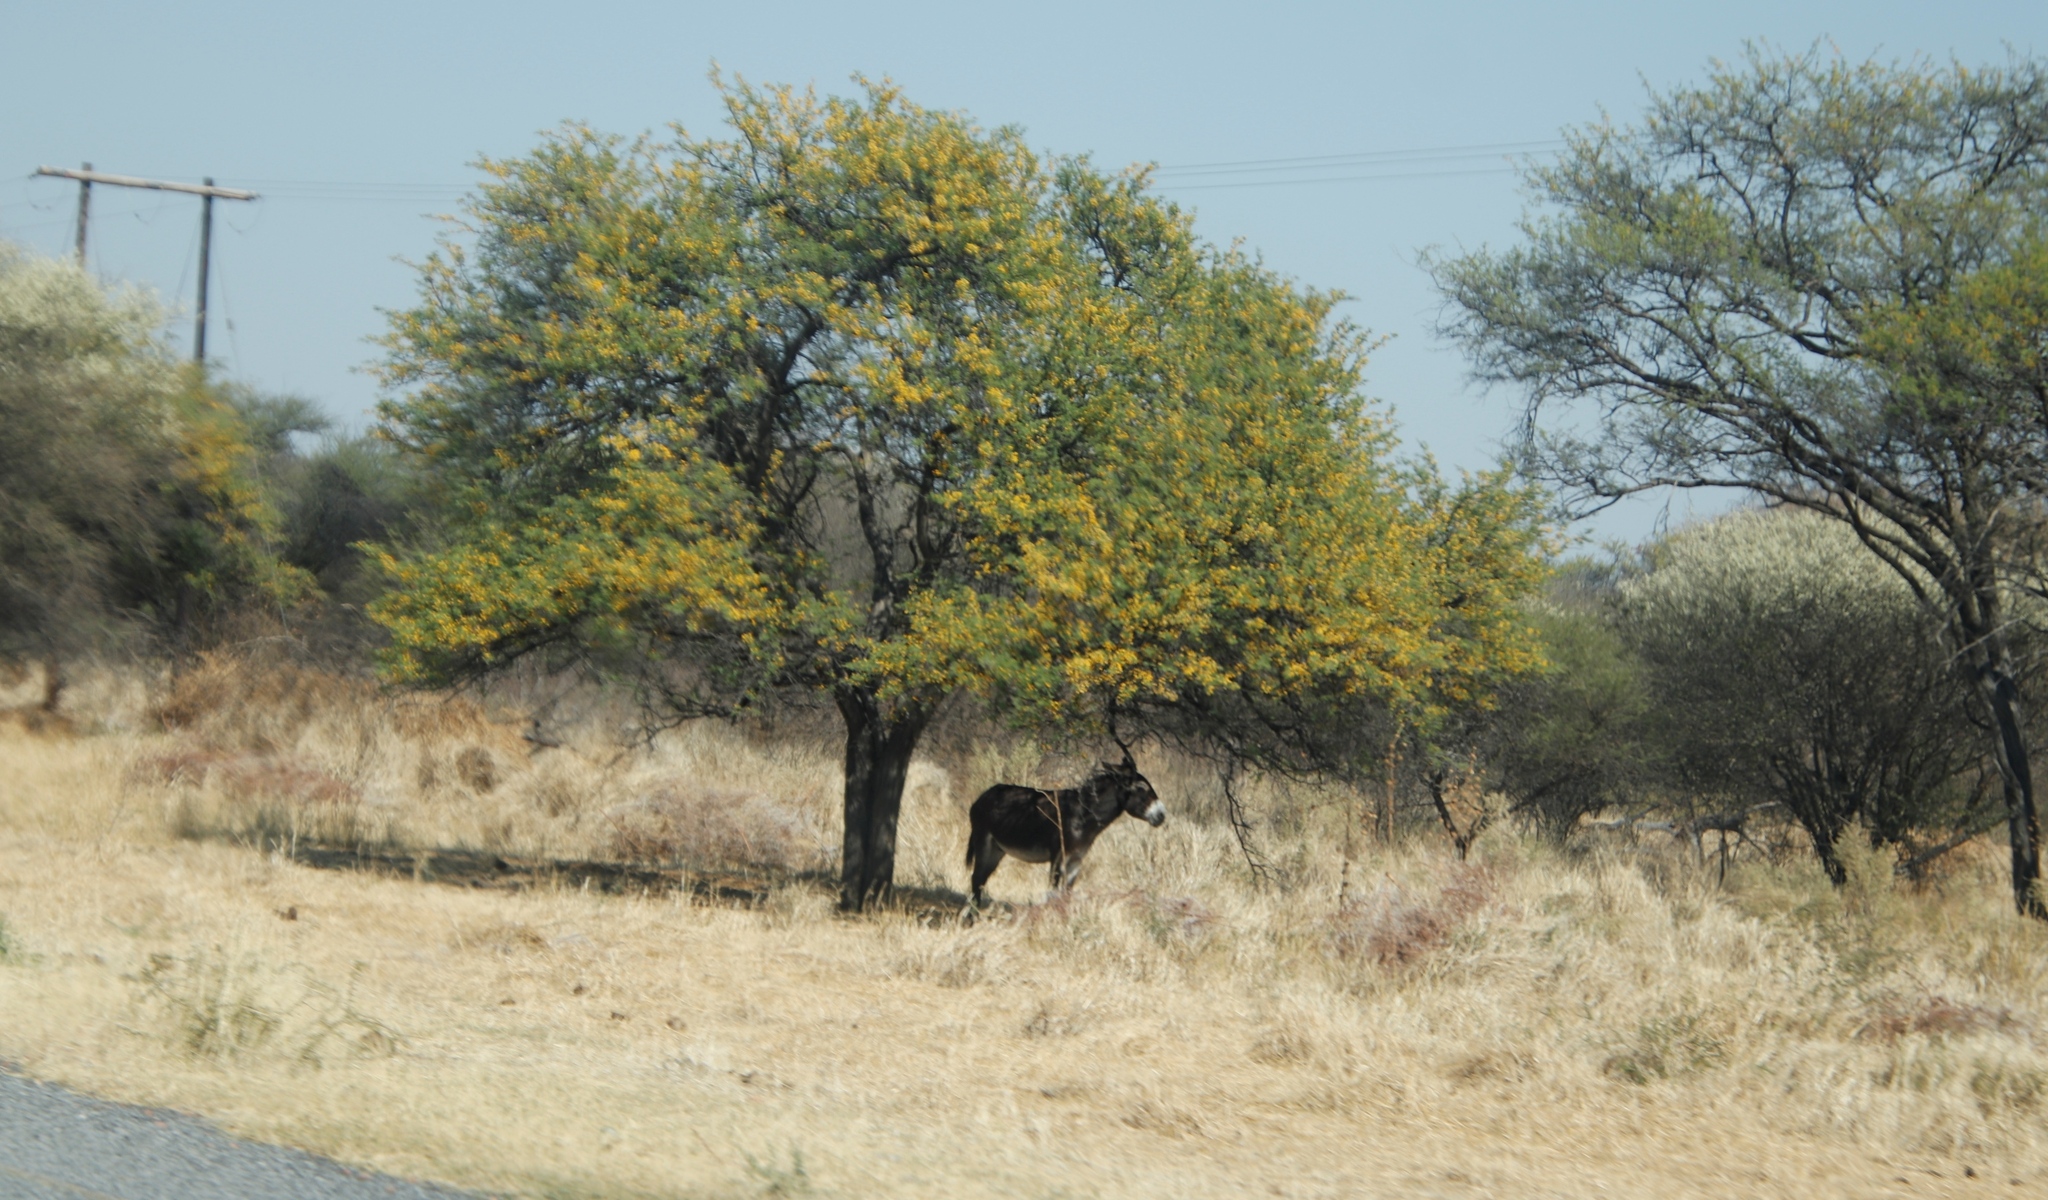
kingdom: Animalia
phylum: Chordata
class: Mammalia
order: Perissodactyla
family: Equidae
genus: Equus
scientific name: Equus asinus
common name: Ass
